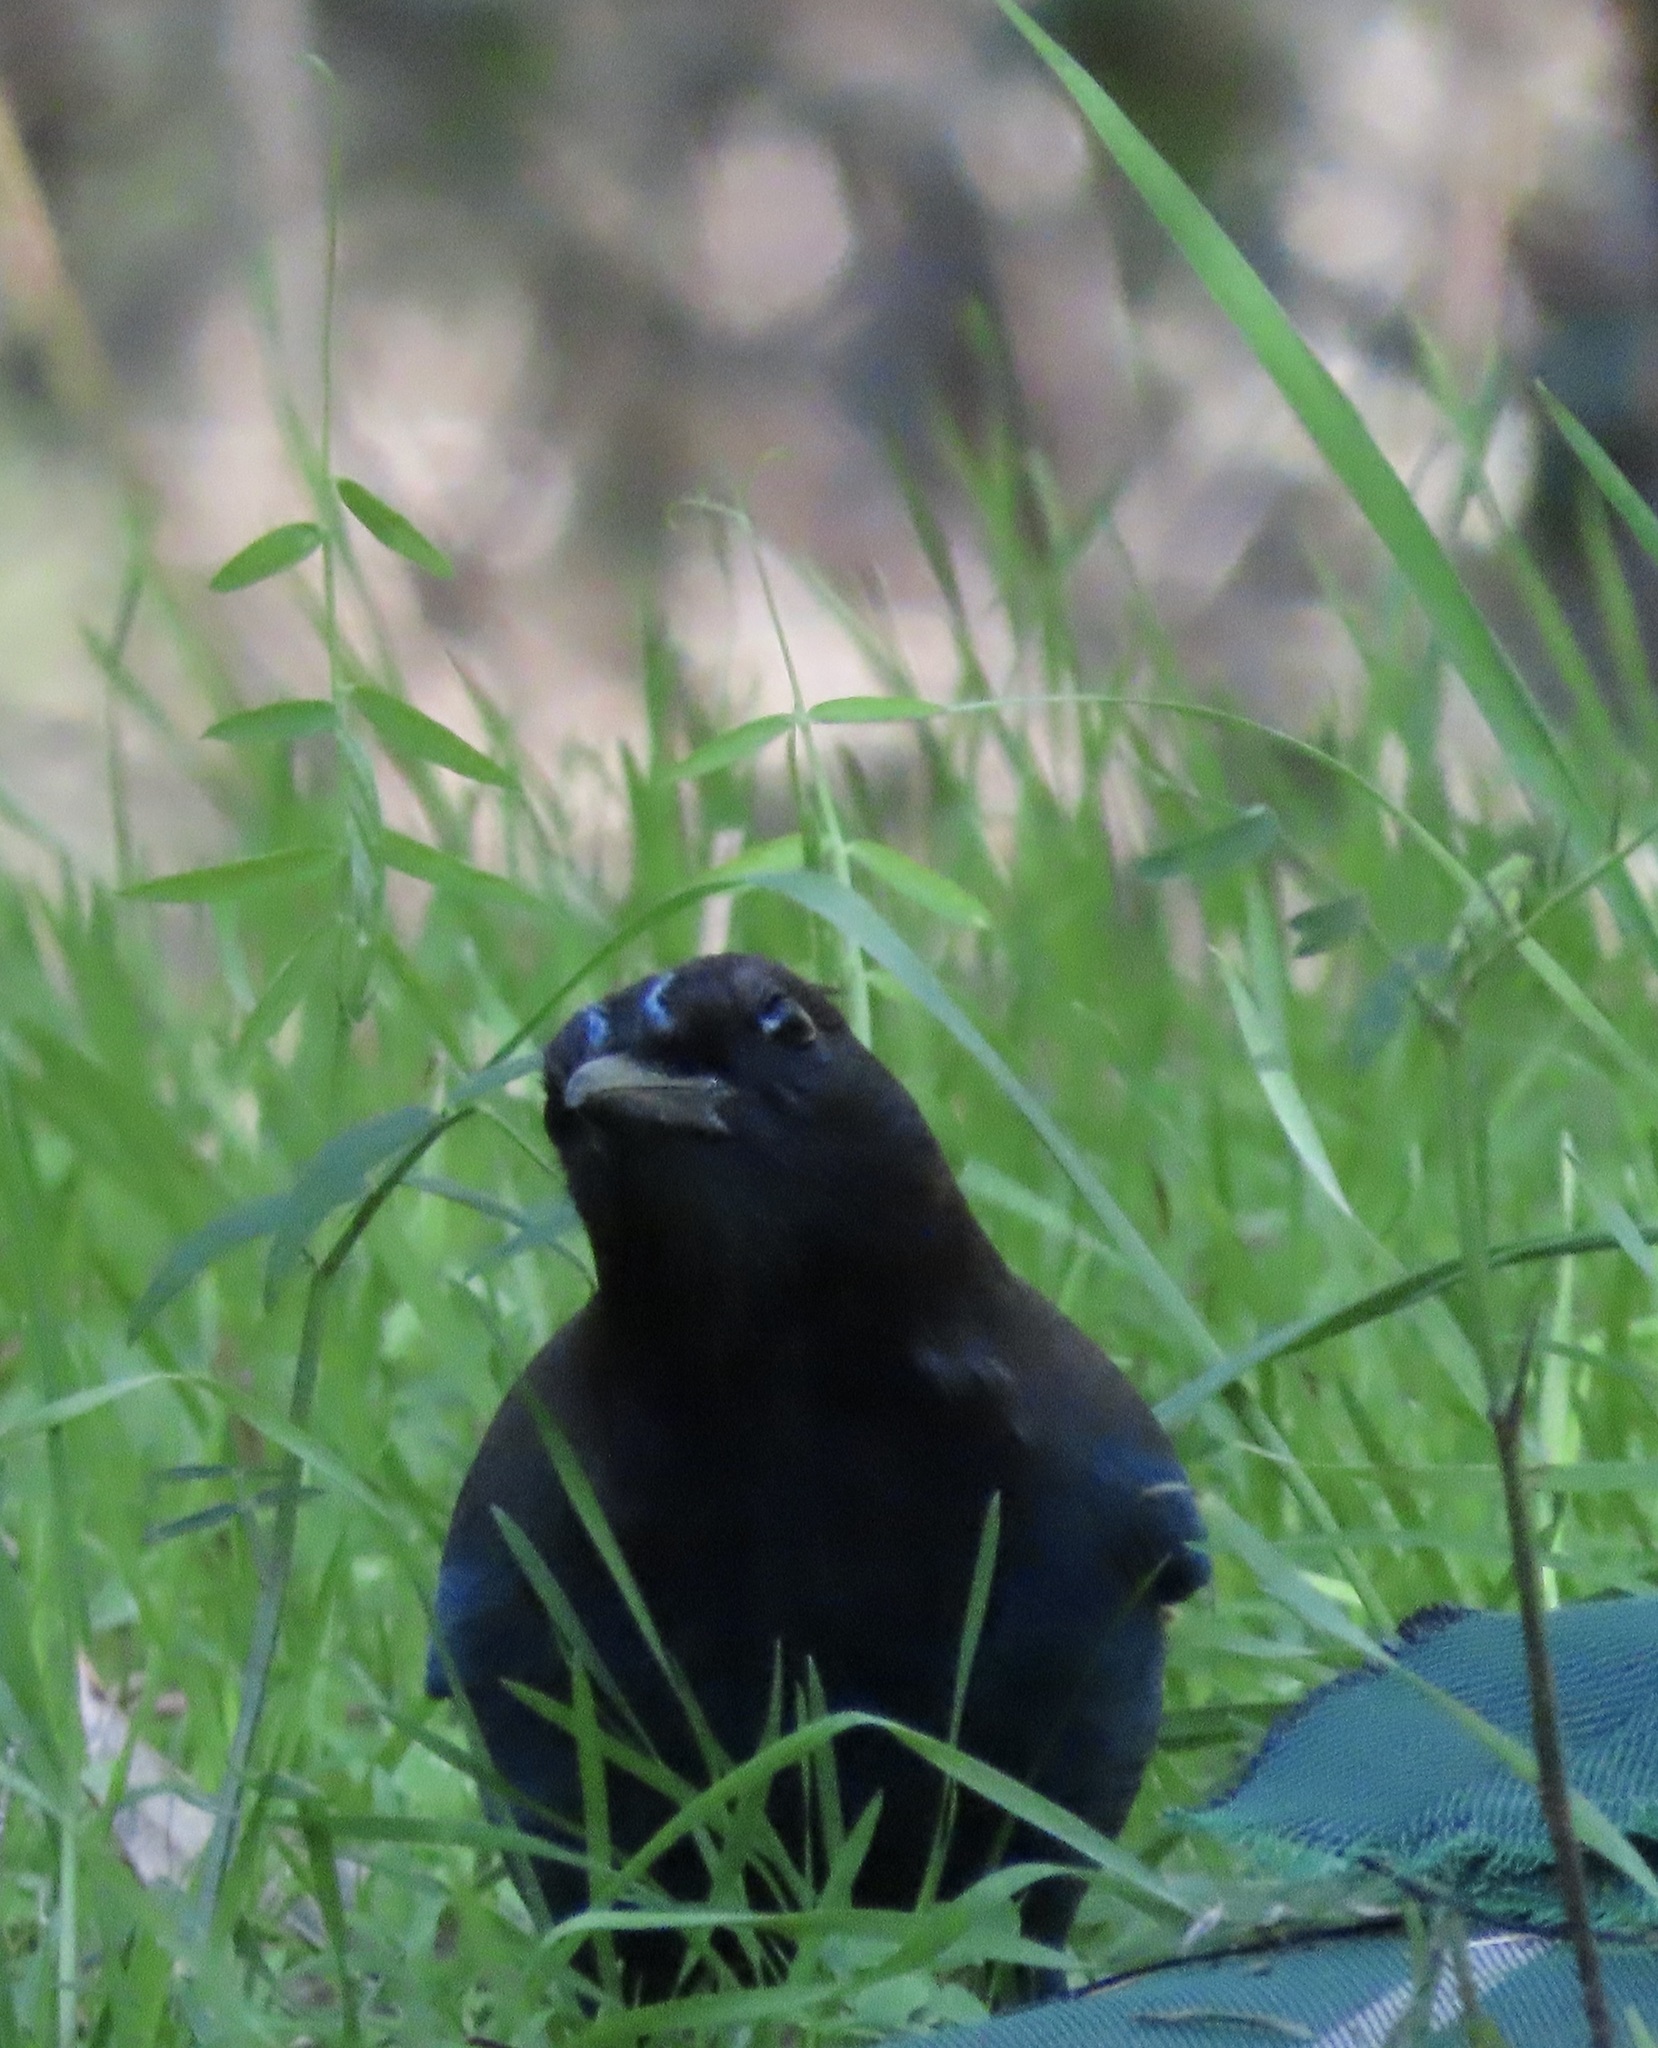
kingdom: Animalia
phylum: Chordata
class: Aves
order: Passeriformes
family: Corvidae
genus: Cyanocitta
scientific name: Cyanocitta stelleri
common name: Steller's jay
